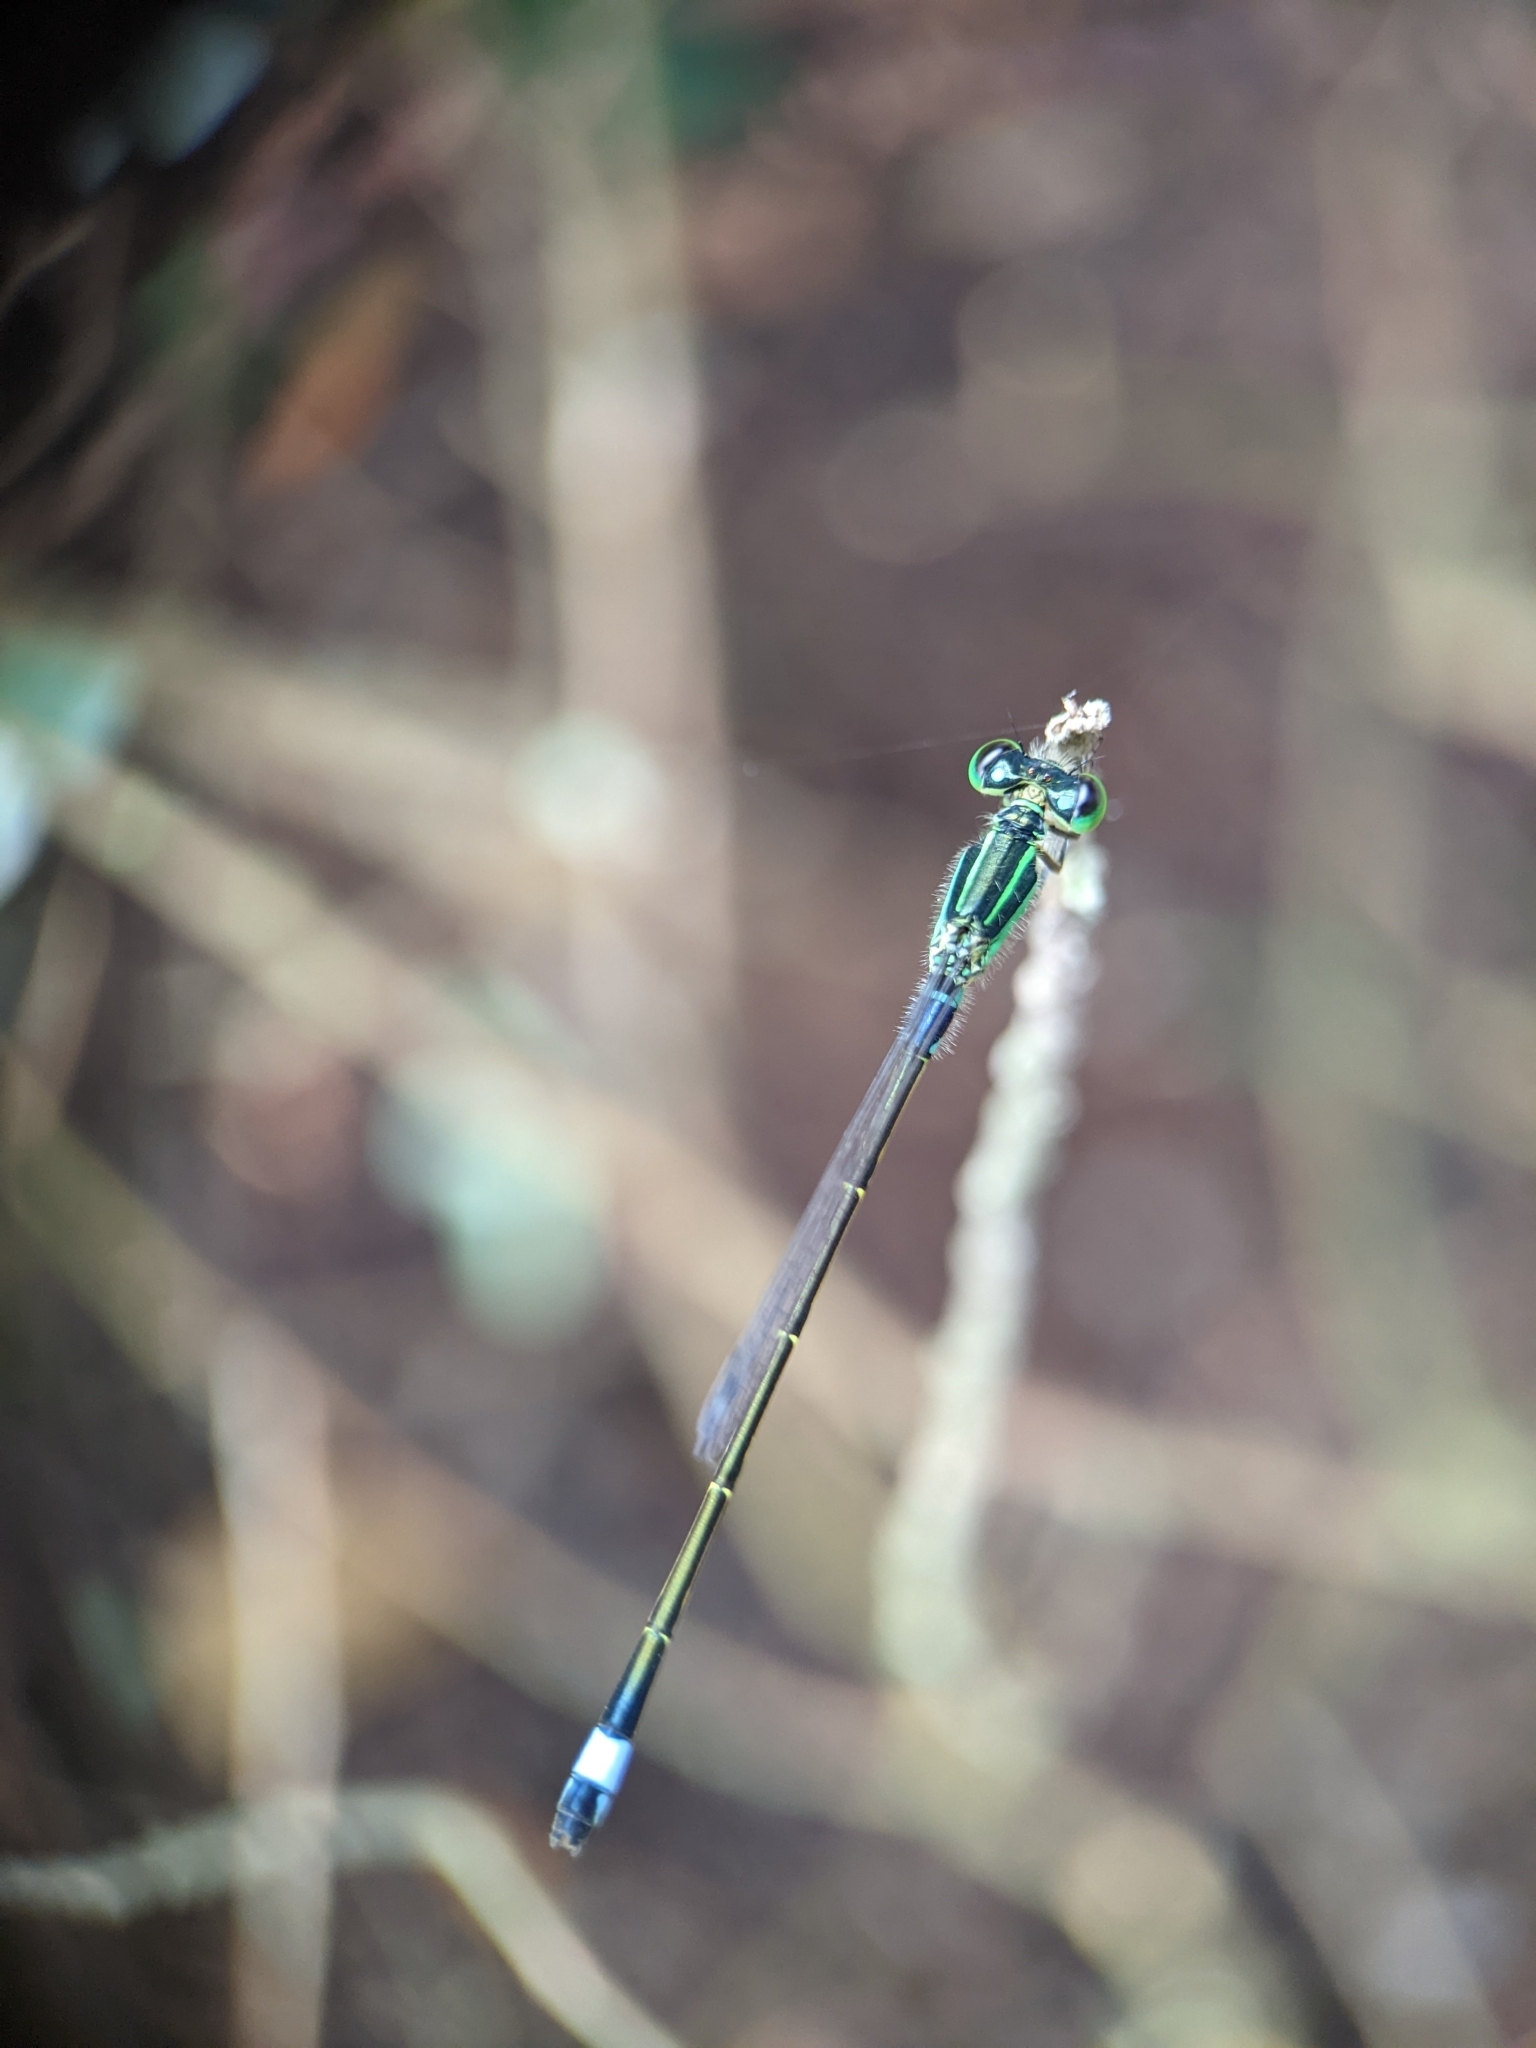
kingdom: Animalia
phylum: Arthropoda
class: Insecta
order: Odonata
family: Coenagrionidae
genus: Ischnura
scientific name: Ischnura senegalensis
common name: Tropical bluetail
